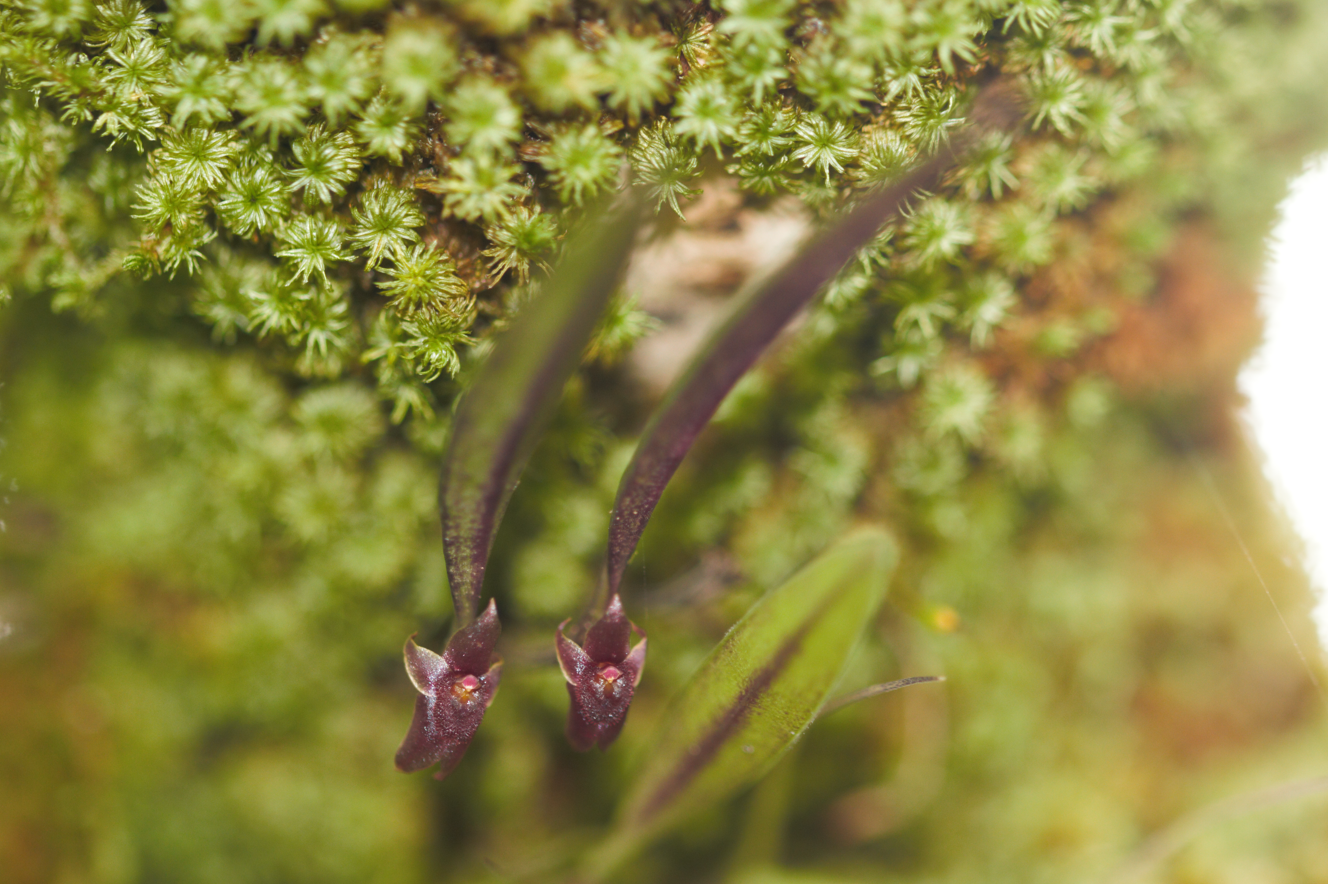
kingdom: Plantae
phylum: Tracheophyta
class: Liliopsida
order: Asparagales
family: Orchidaceae
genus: Octomeria
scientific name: Octomeria sarthouae
